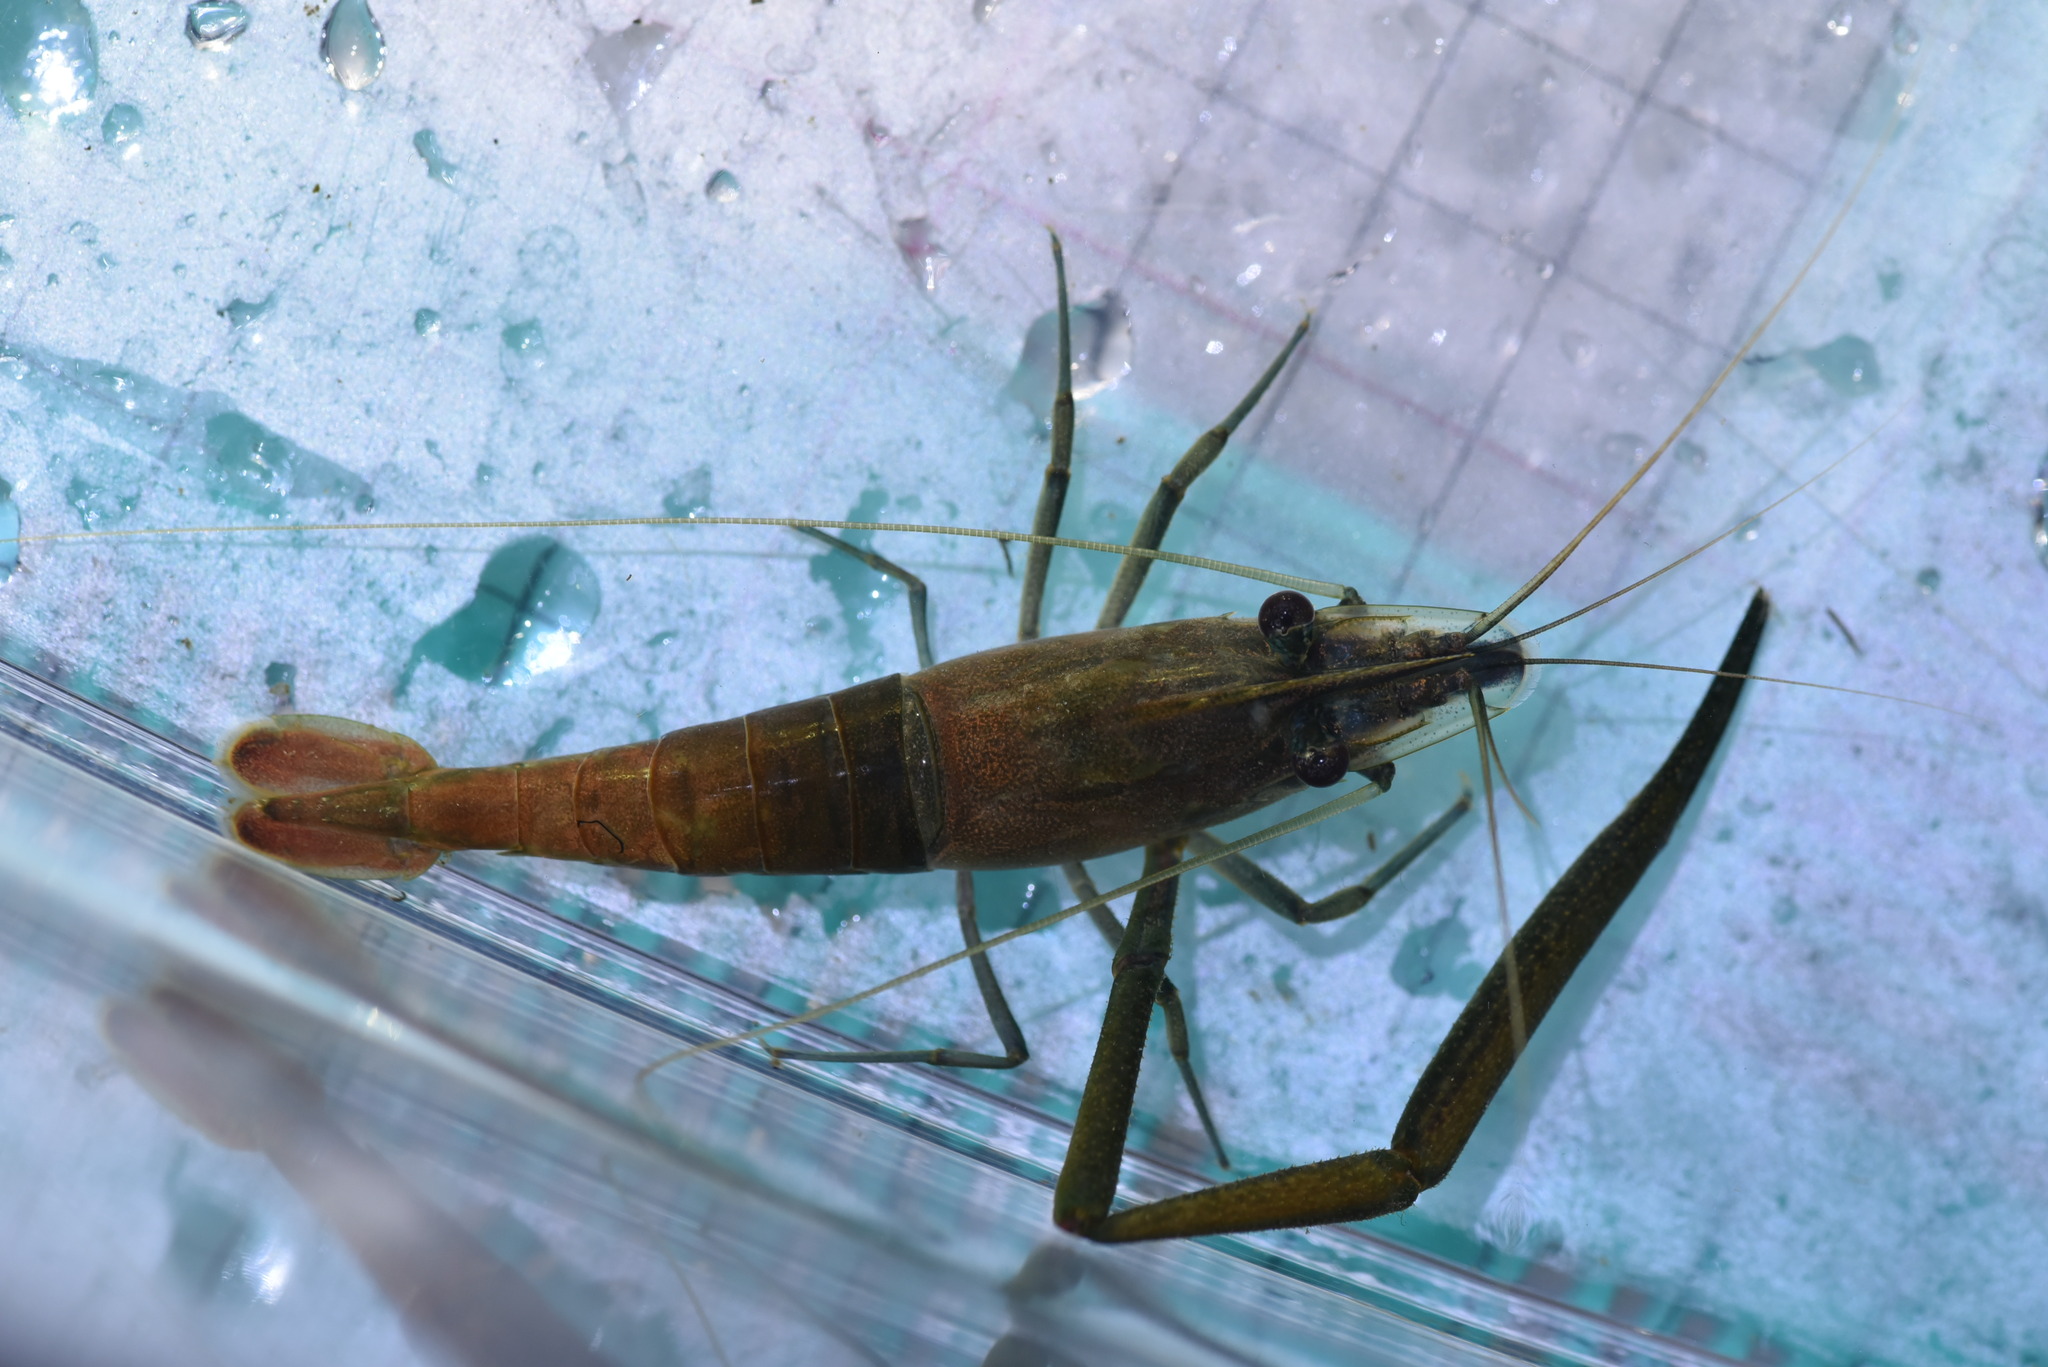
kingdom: Animalia
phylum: Arthropoda
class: Malacostraca
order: Decapoda
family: Palaemonidae
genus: Macrobrachium
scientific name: Macrobrachium asperulum
